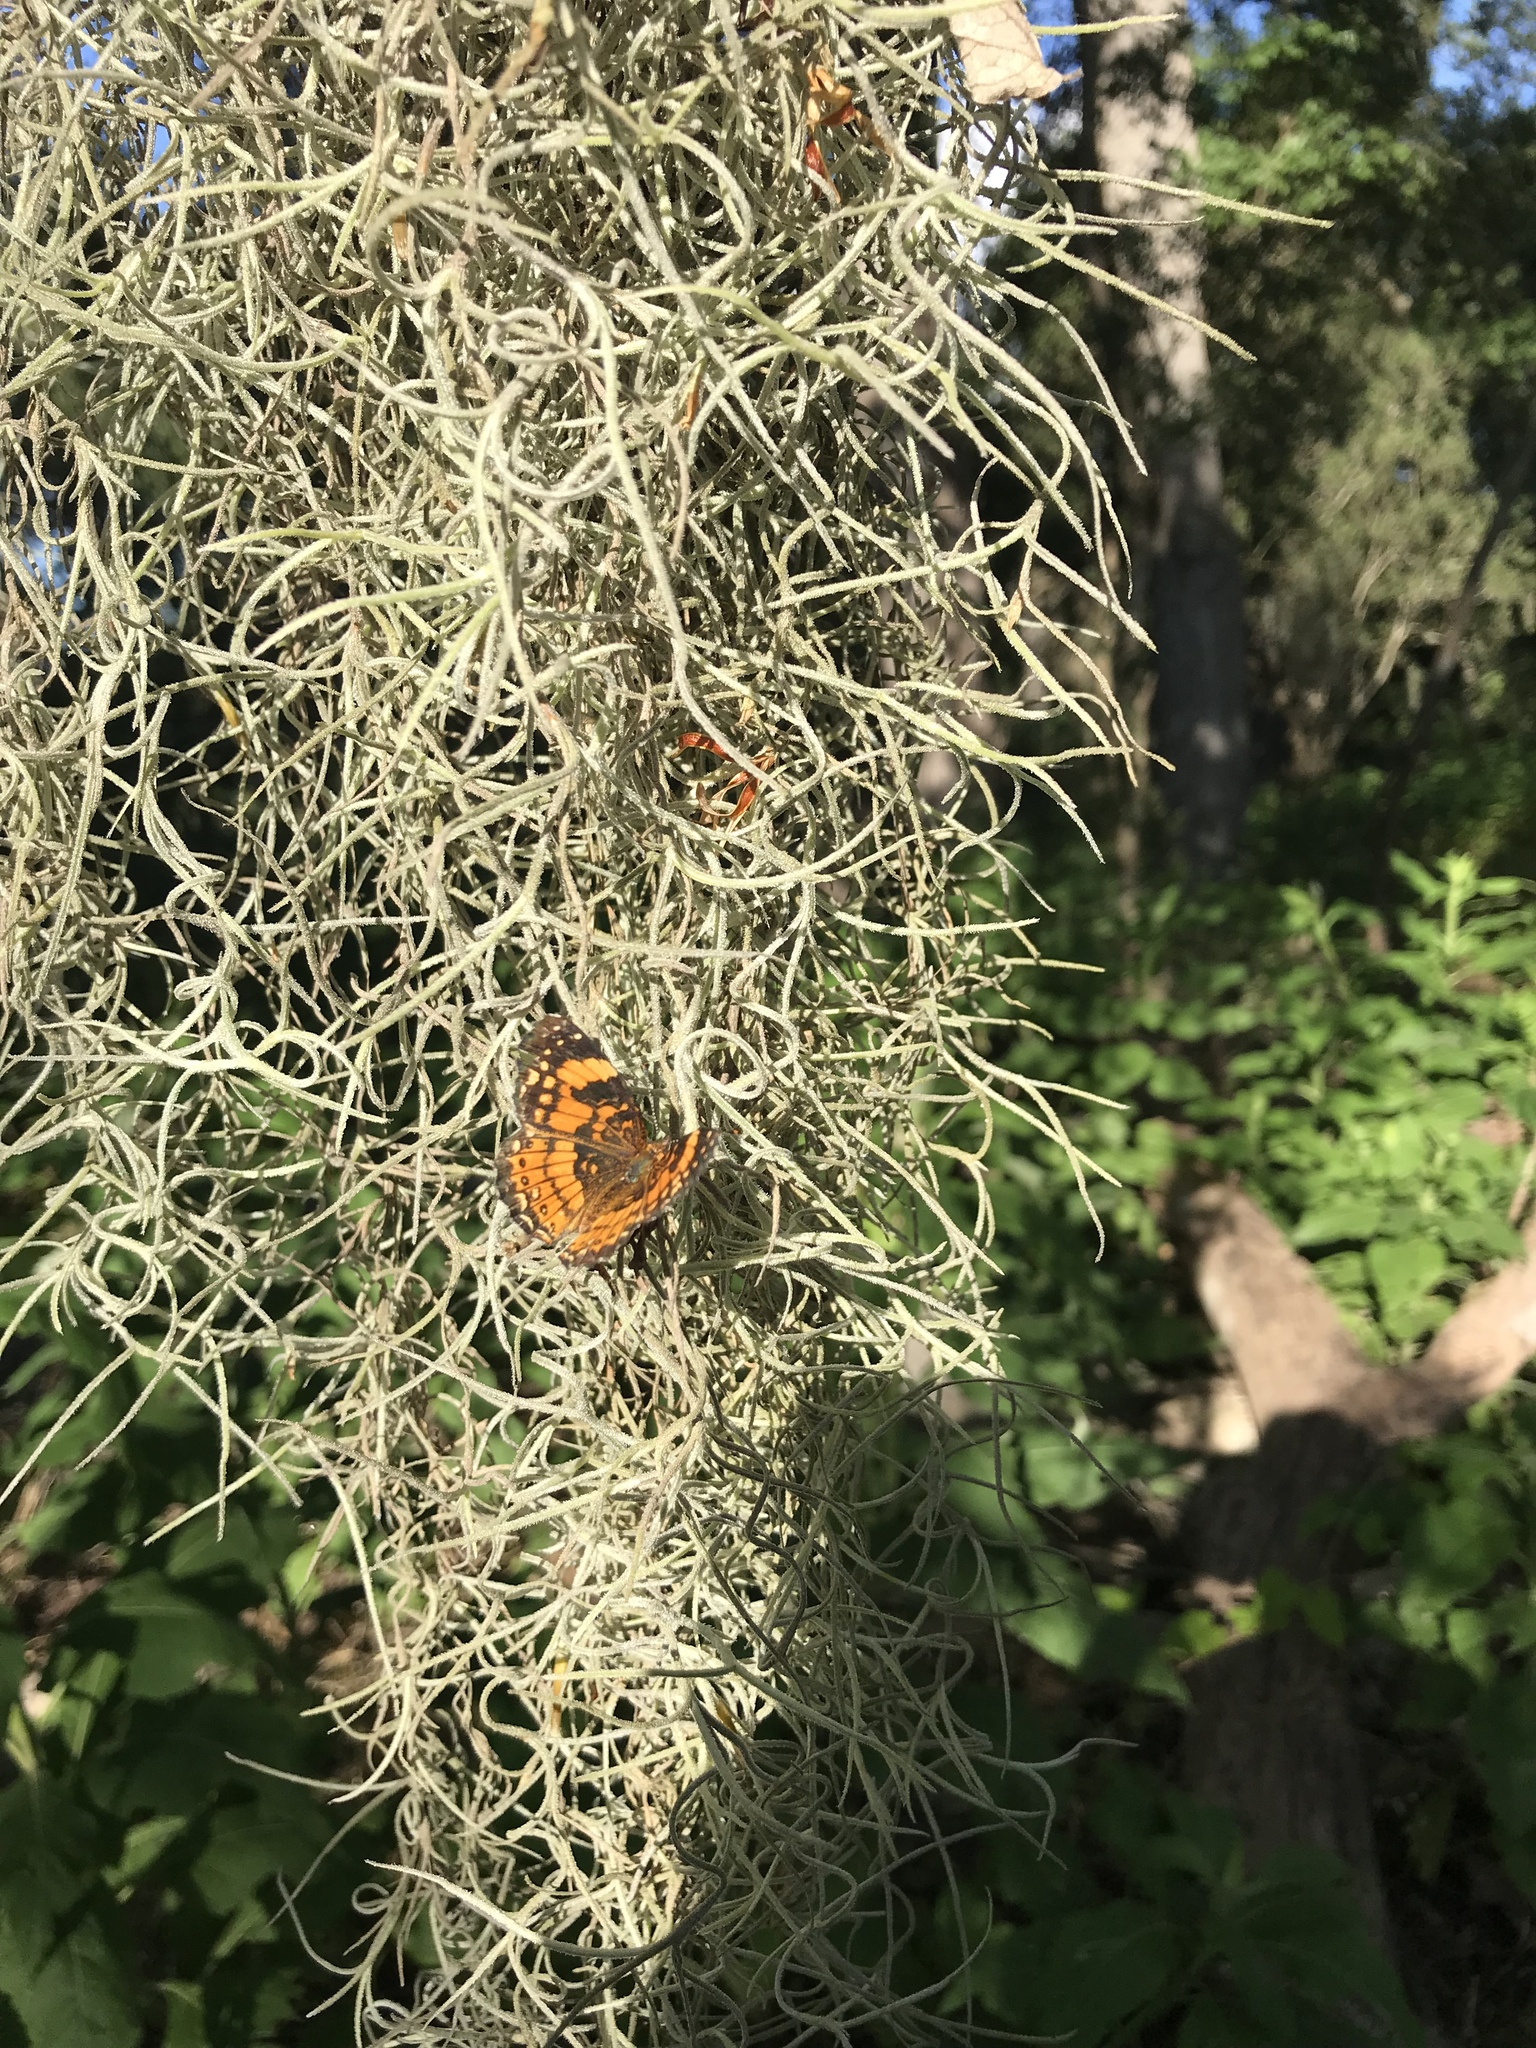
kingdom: Animalia
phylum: Arthropoda
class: Insecta
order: Lepidoptera
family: Nymphalidae
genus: Chlosyne
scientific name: Chlosyne nycteis
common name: Silvery checkerspot
